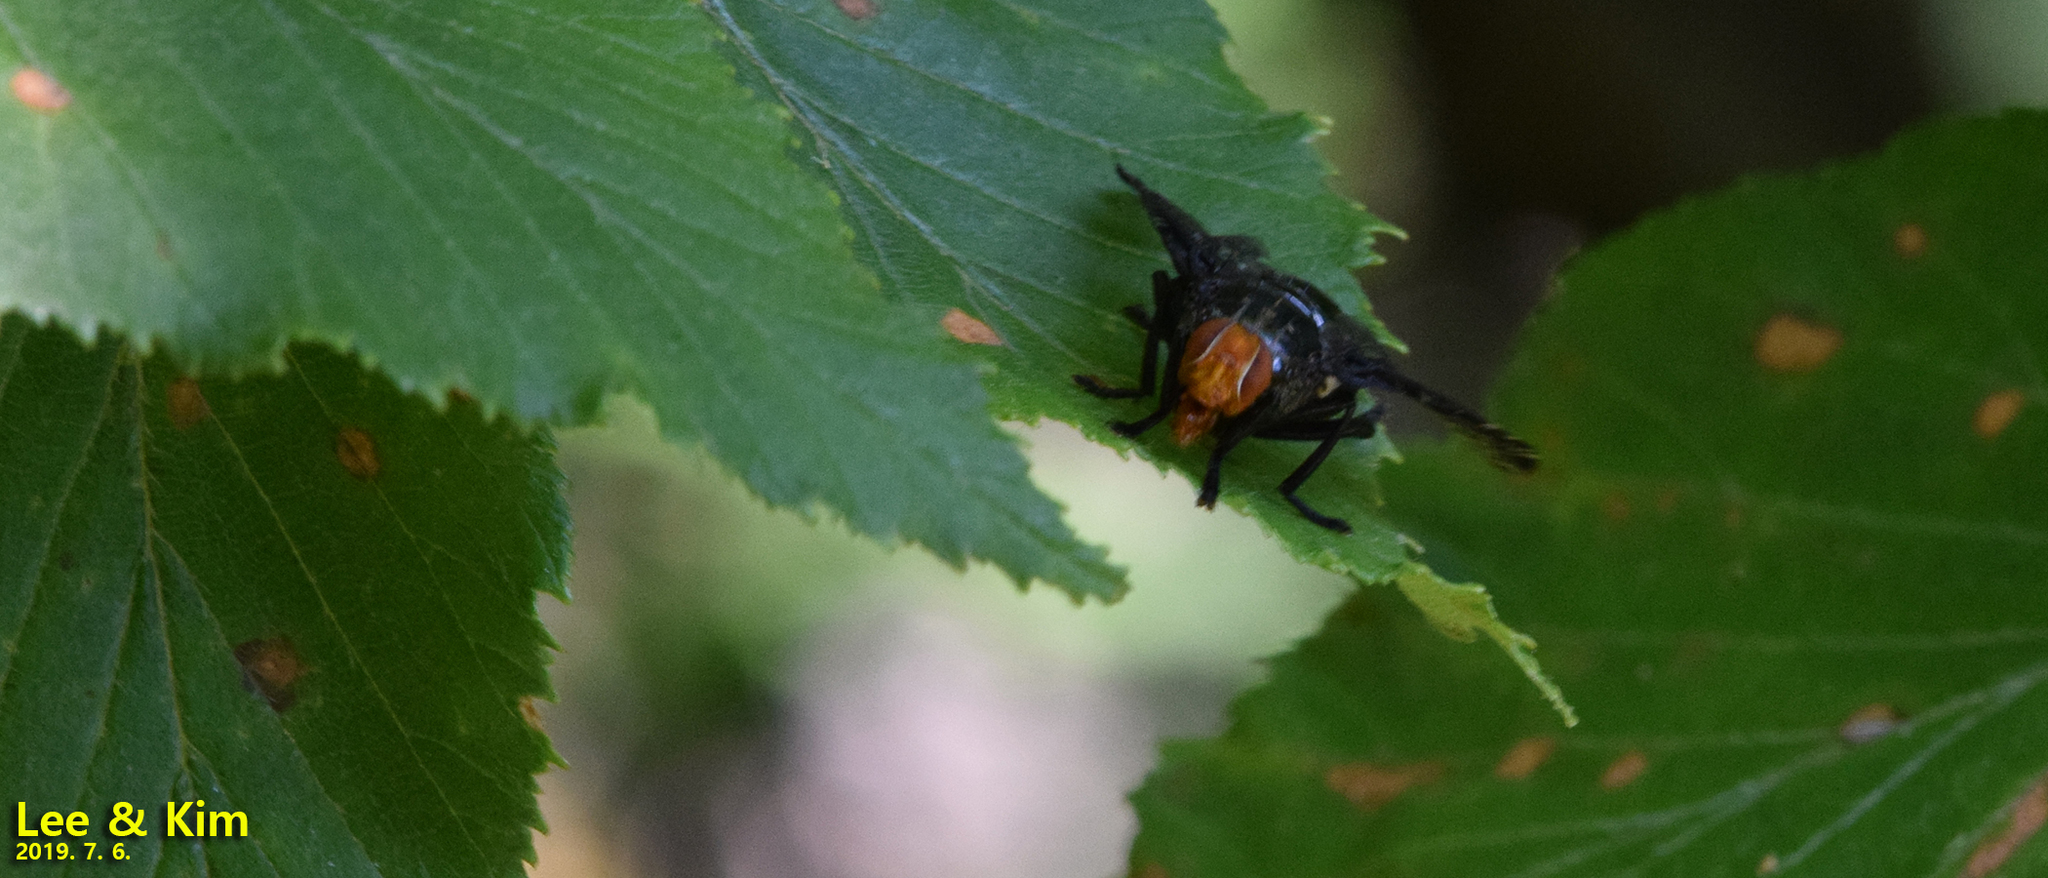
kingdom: Animalia
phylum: Arthropoda
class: Insecta
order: Diptera
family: Platystomatidae
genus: Prosthiochaeta
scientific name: Prosthiochaeta bifasciata
